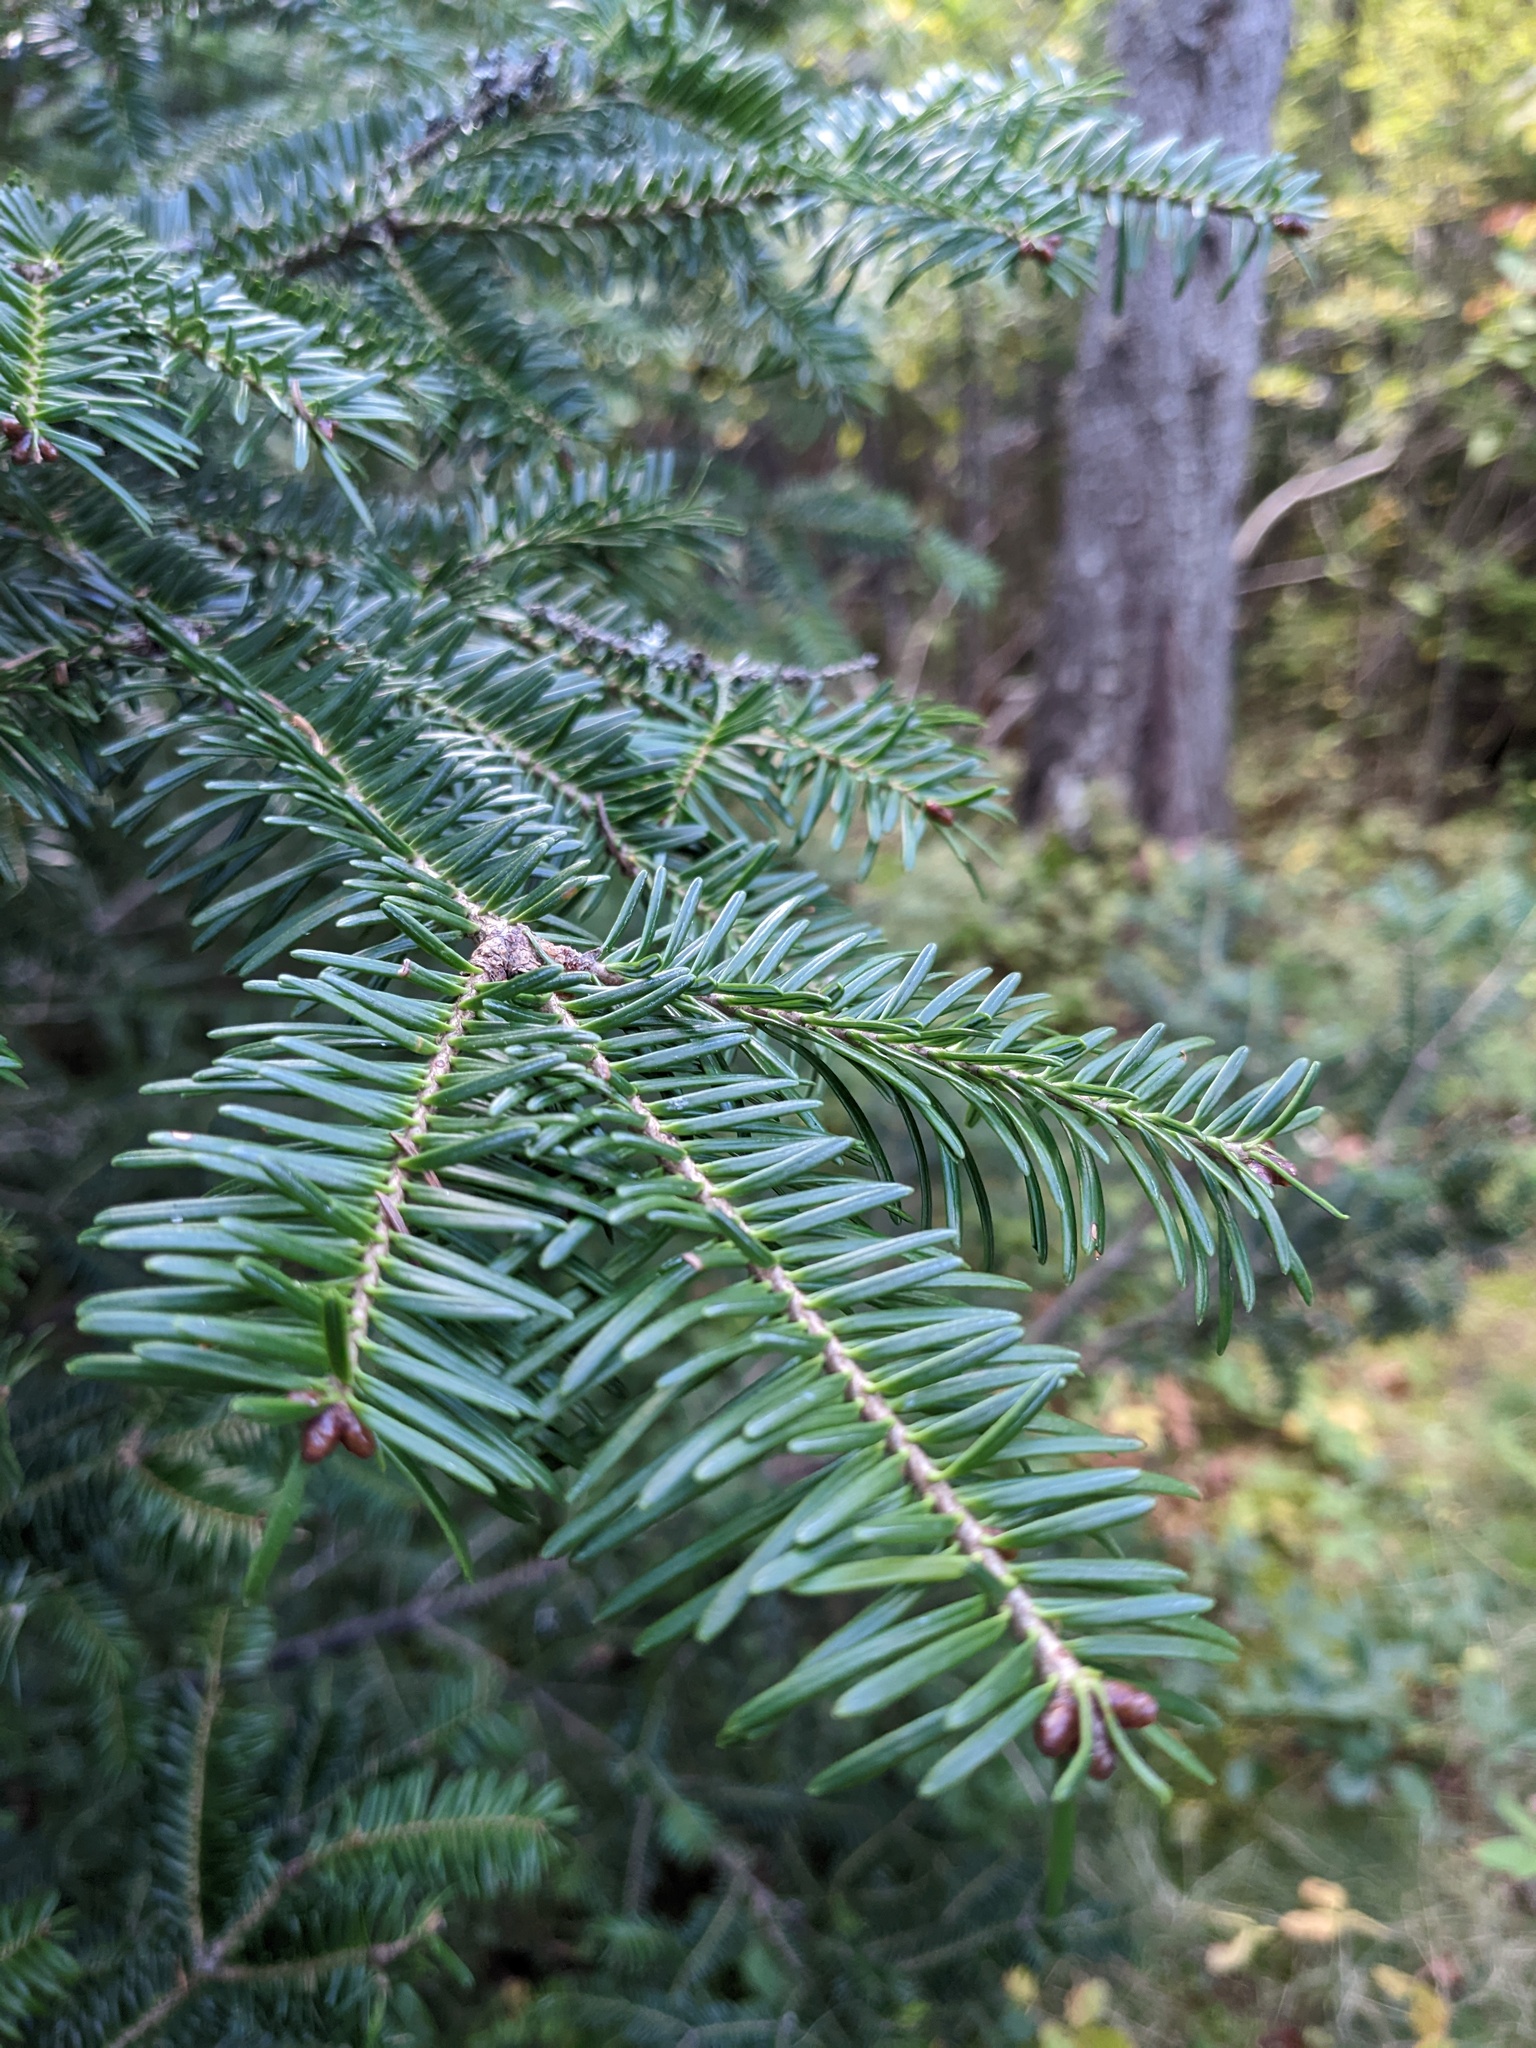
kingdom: Plantae
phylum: Tracheophyta
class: Pinopsida
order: Pinales
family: Pinaceae
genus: Abies
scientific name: Abies balsamea
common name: Balsam fir
